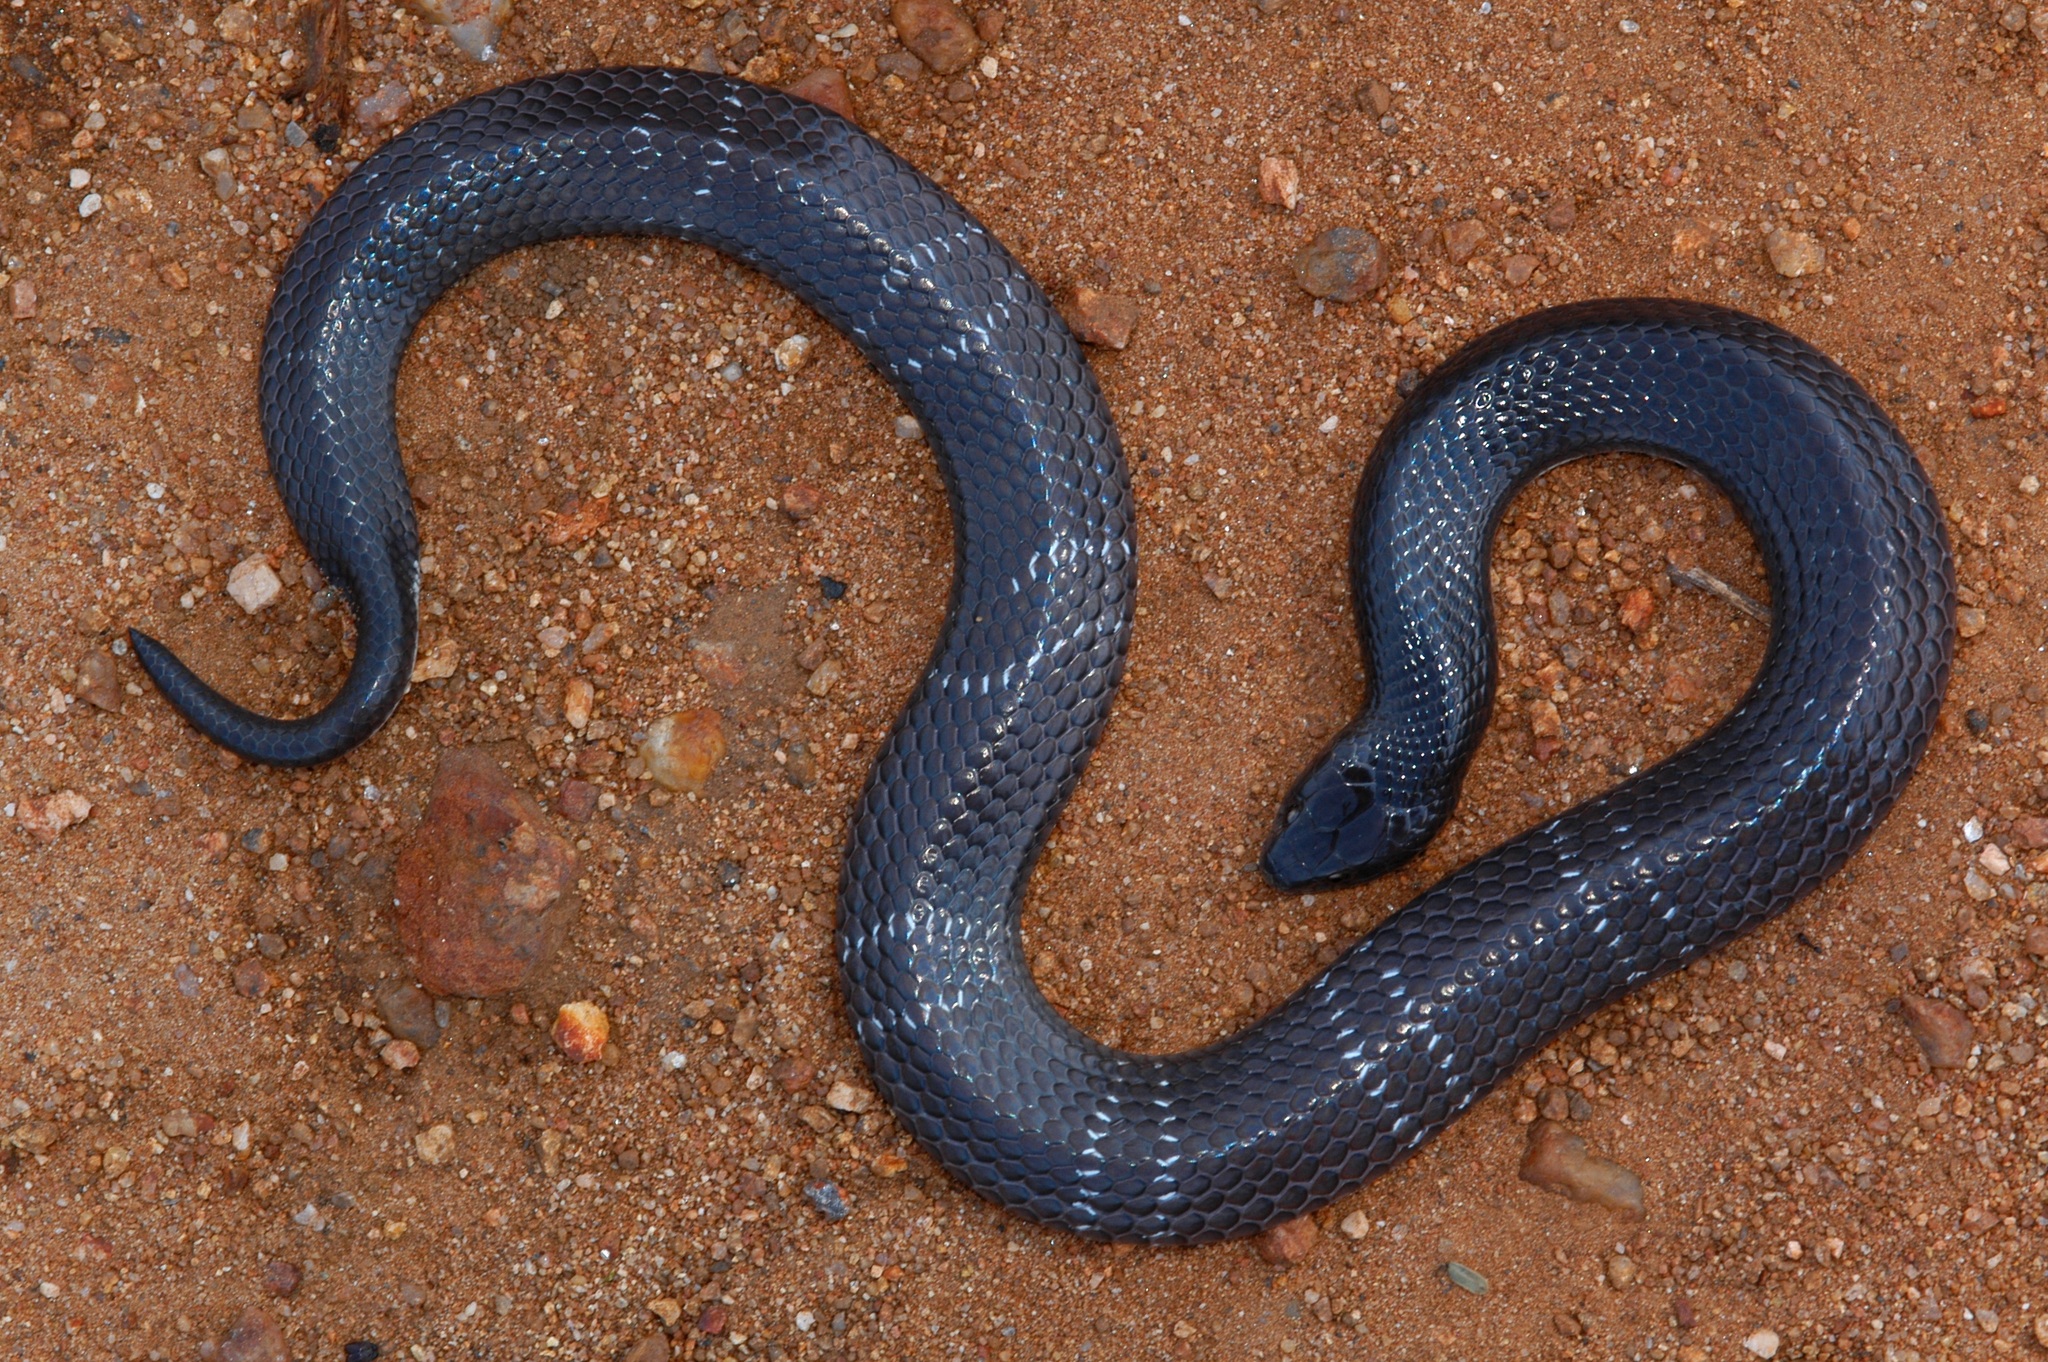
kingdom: Animalia
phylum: Chordata
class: Squamata
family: Elapidae
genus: Elapsoidea
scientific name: Elapsoidea boulengeri
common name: Boulenger's garter snake
